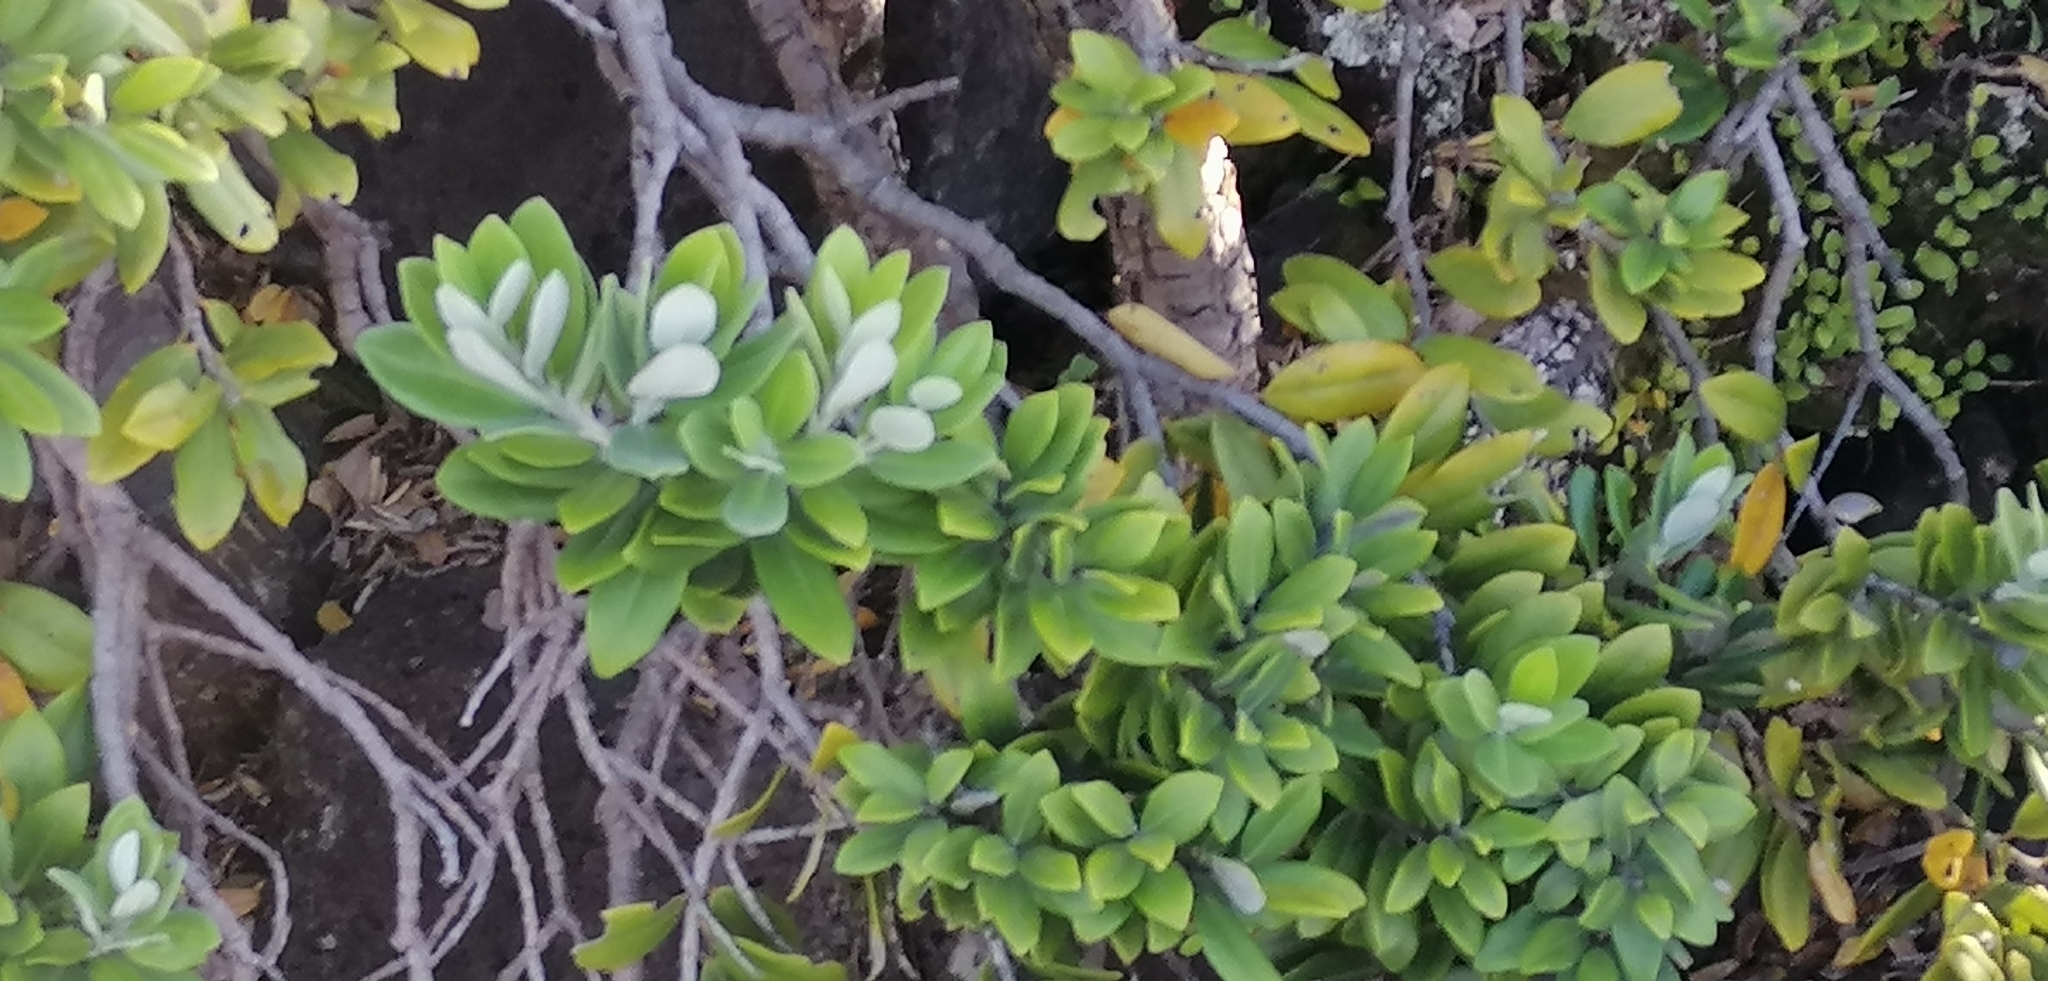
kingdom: Plantae
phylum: Tracheophyta
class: Magnoliopsida
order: Myrtales
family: Myrtaceae
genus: Metrosideros
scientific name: Metrosideros excelsa
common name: New zealand christmastree
